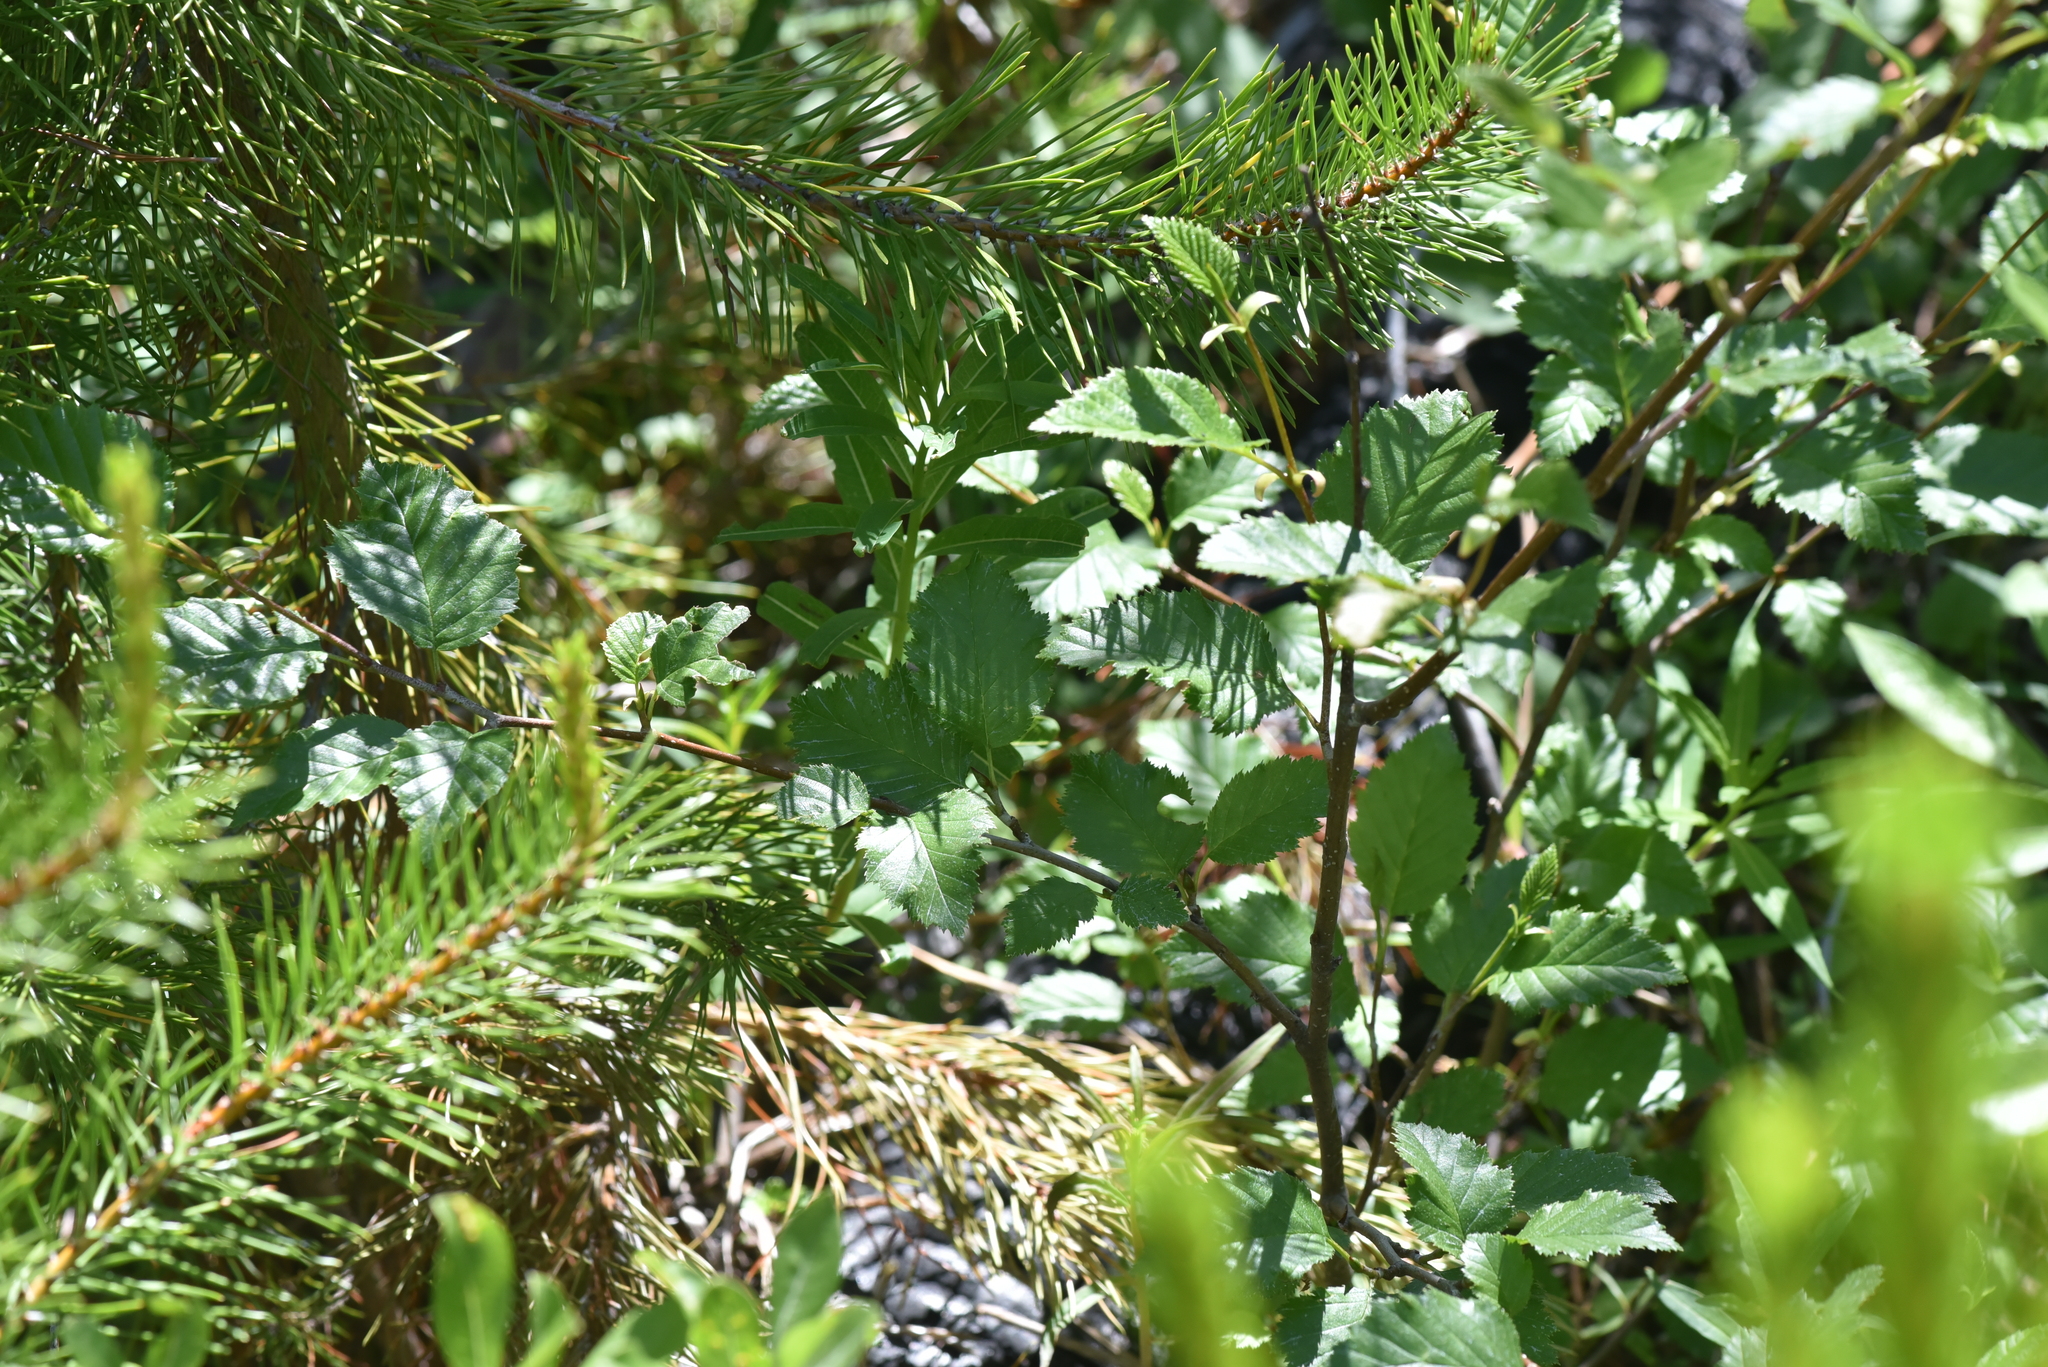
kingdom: Plantae
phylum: Tracheophyta
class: Magnoliopsida
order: Myrtales
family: Onagraceae
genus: Chamaenerion
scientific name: Chamaenerion angustifolium
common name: Fireweed
